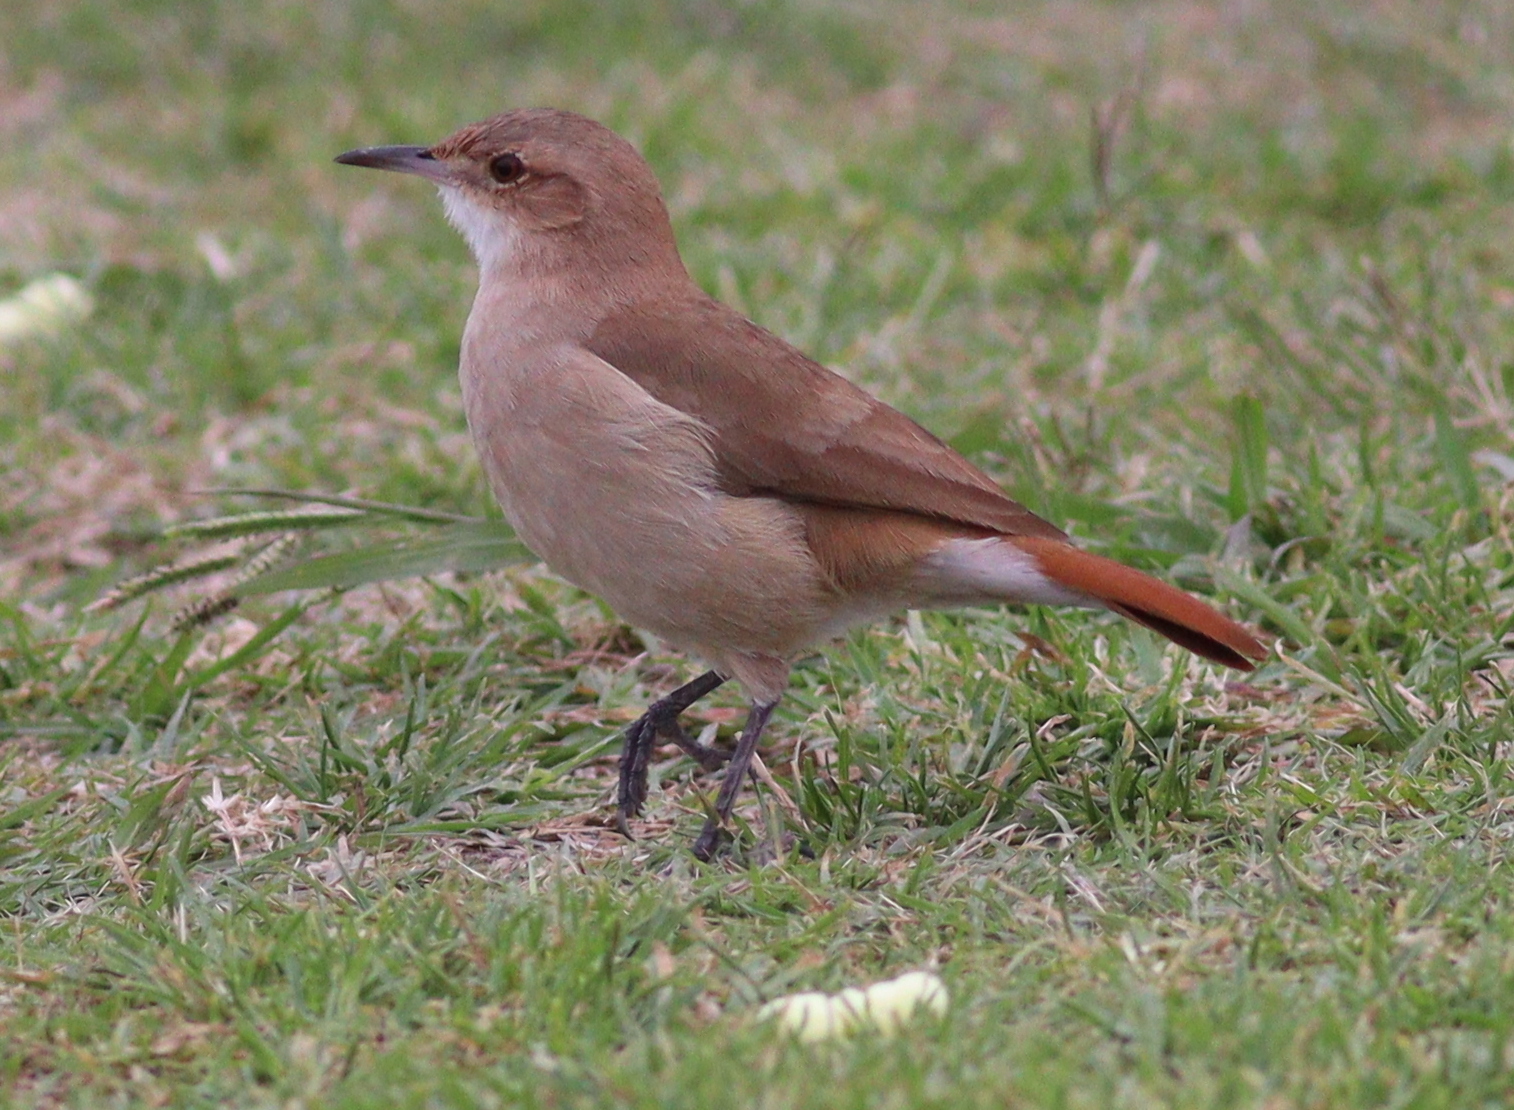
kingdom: Animalia
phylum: Chordata
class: Aves
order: Passeriformes
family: Furnariidae
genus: Furnarius
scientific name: Furnarius rufus
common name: Rufous hornero
